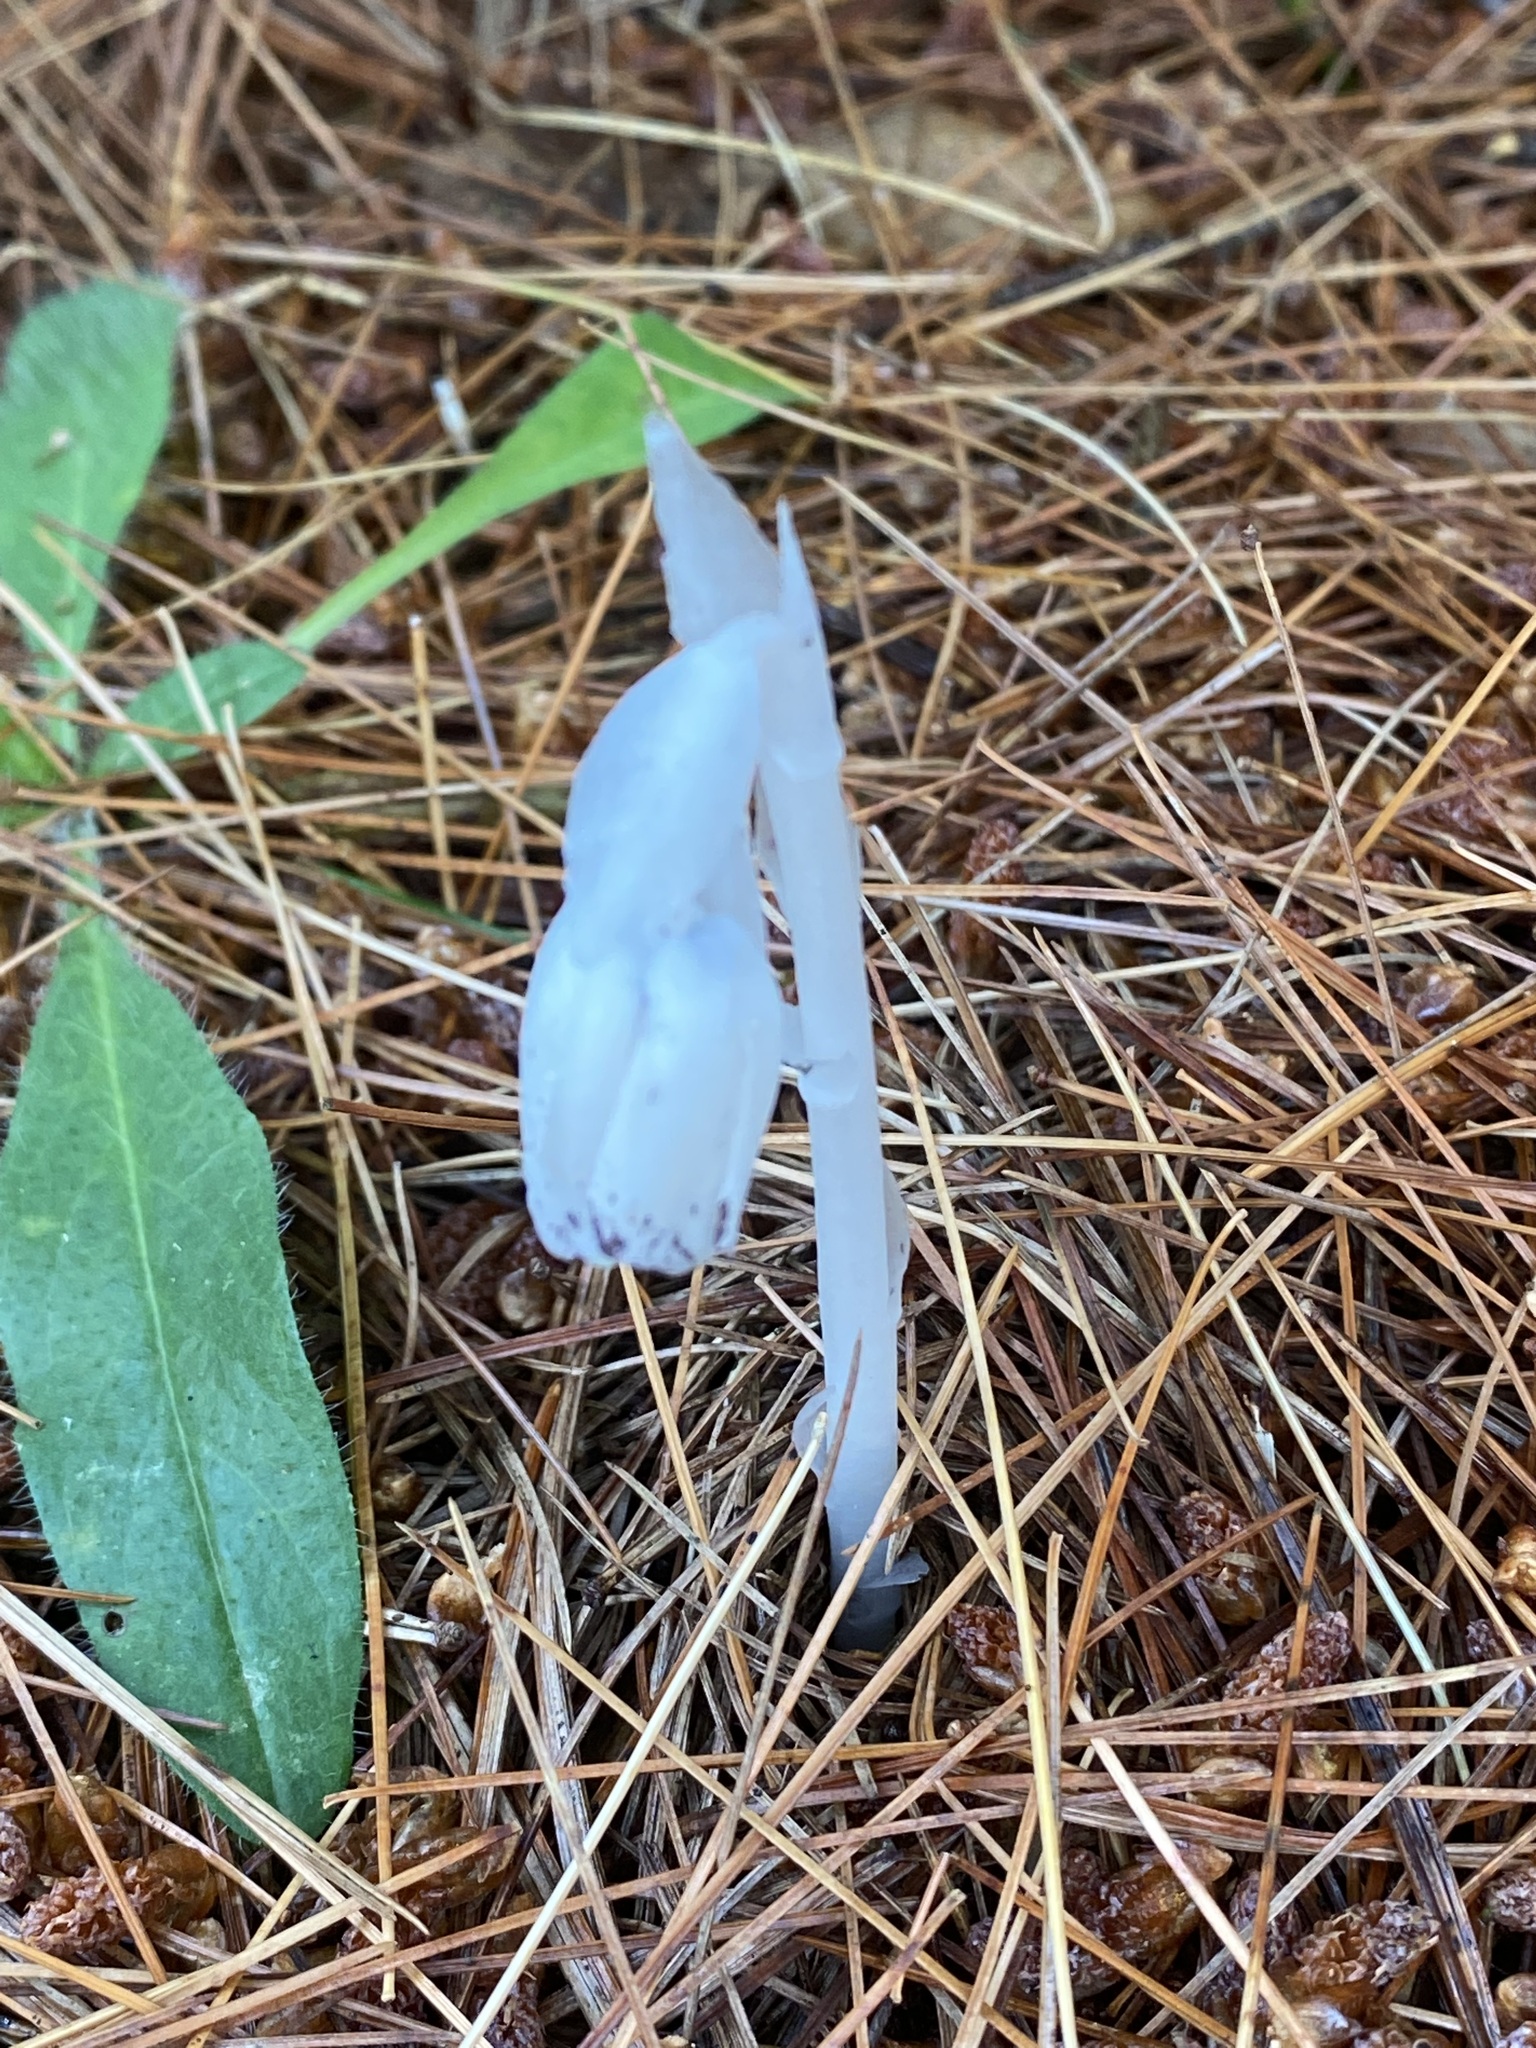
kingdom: Plantae
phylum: Tracheophyta
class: Magnoliopsida
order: Ericales
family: Ericaceae
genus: Monotropa
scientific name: Monotropa uniflora
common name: Convulsion root
